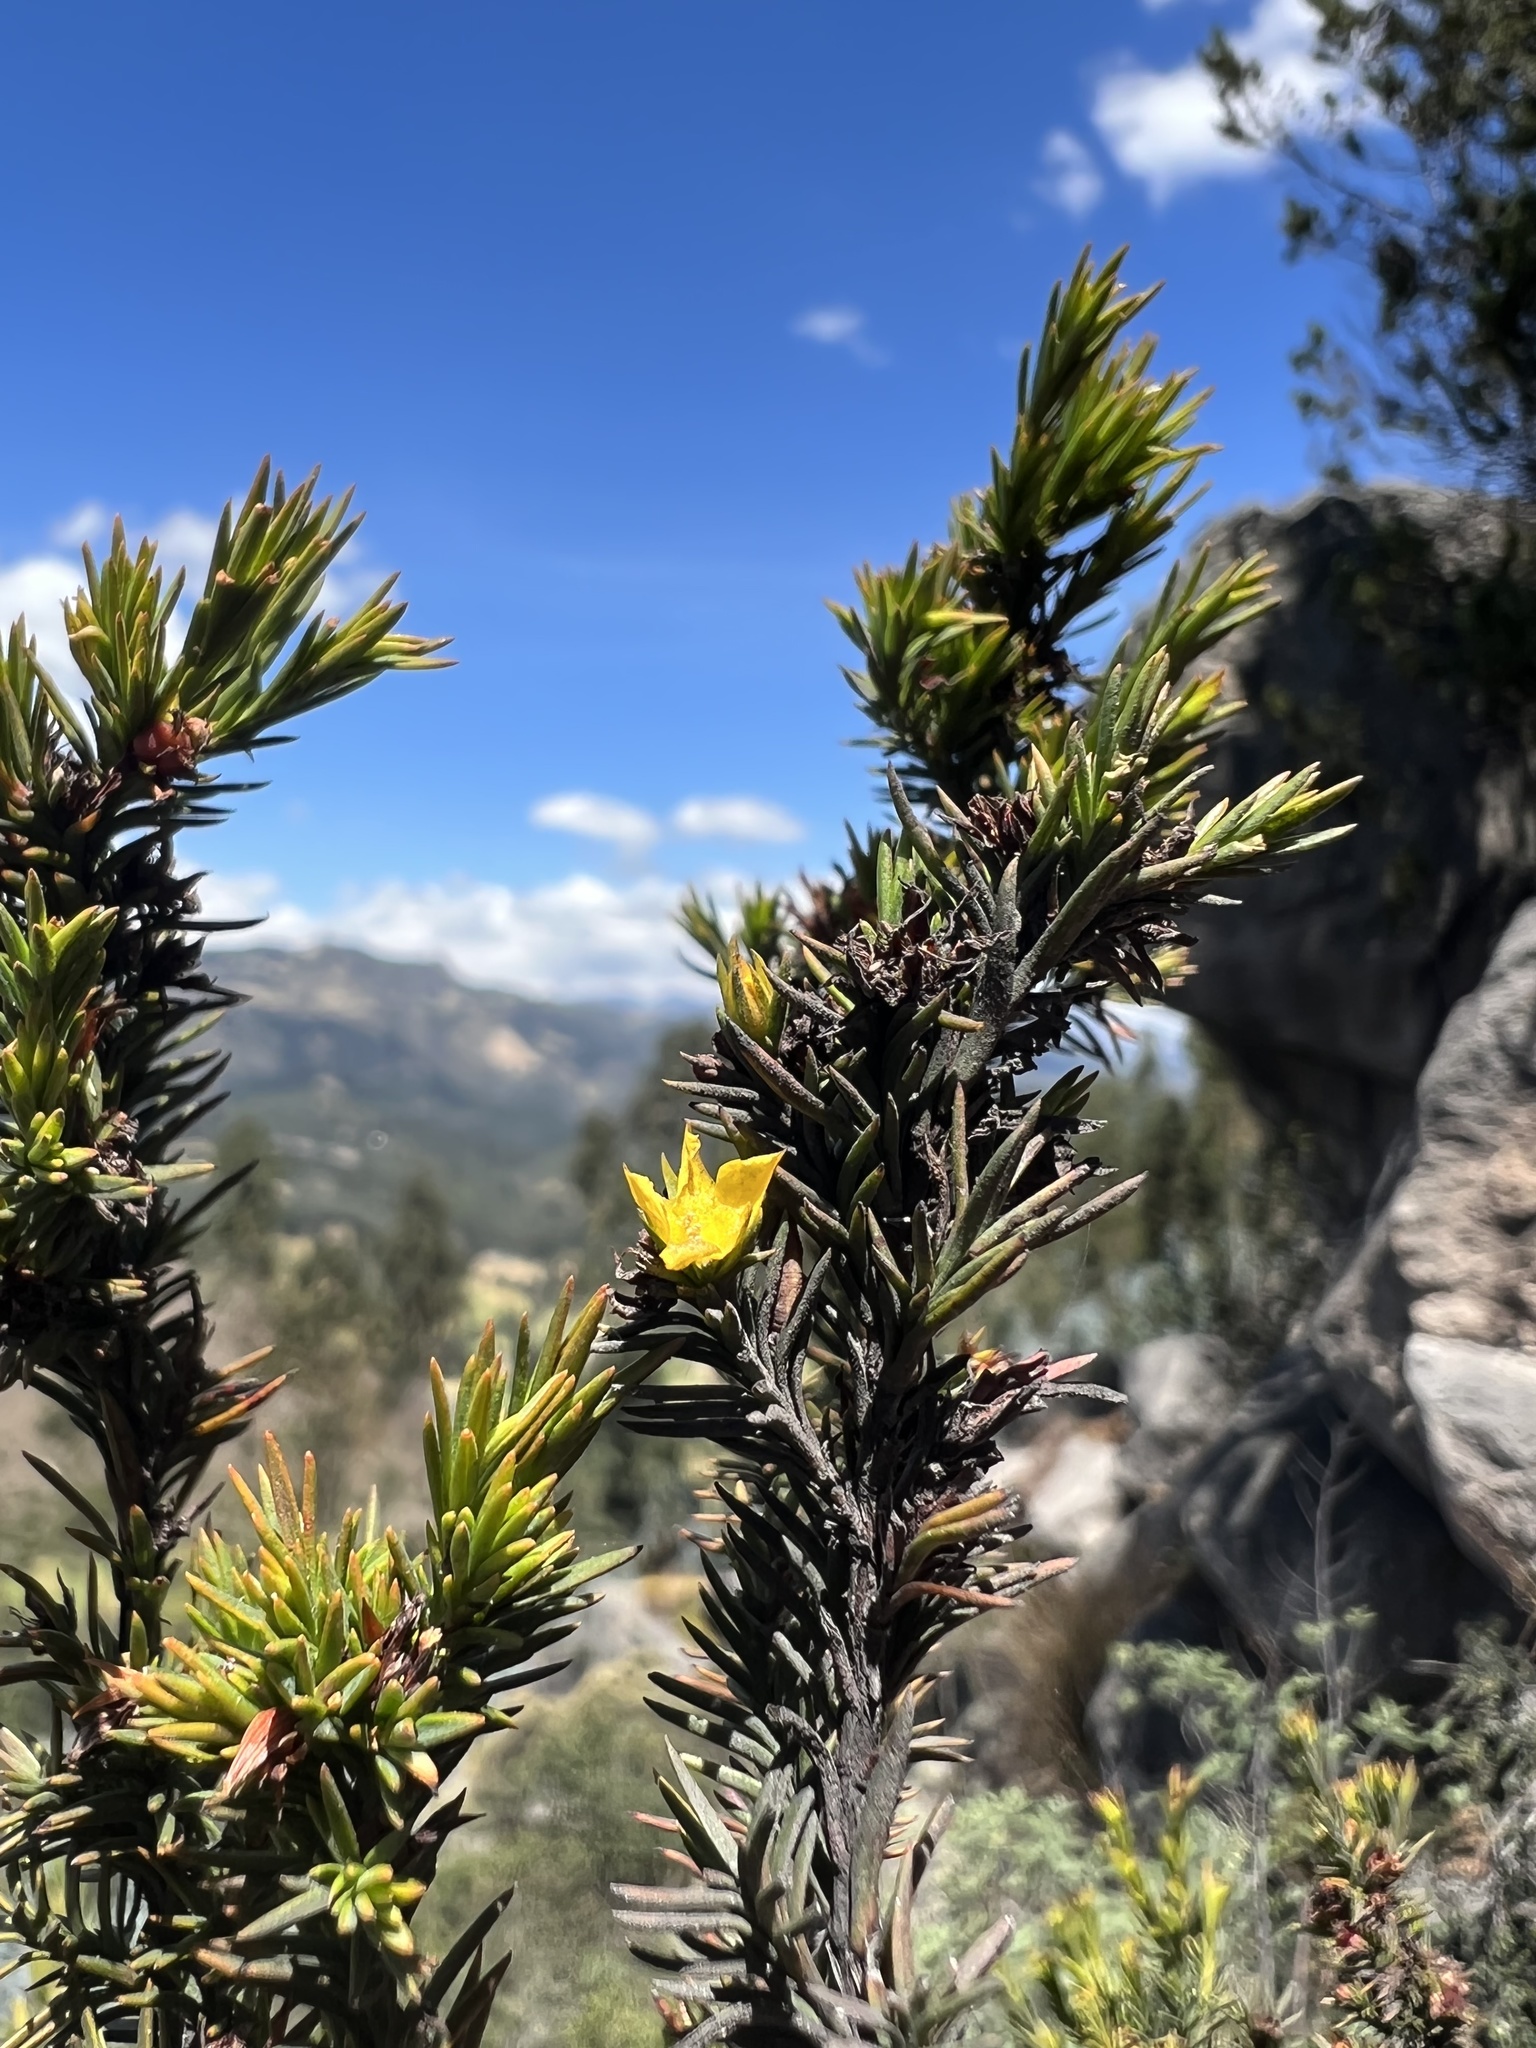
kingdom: Plantae
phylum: Tracheophyta
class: Magnoliopsida
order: Malpighiales
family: Hypericaceae
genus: Hypericum
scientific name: Hypericum juniperinum
